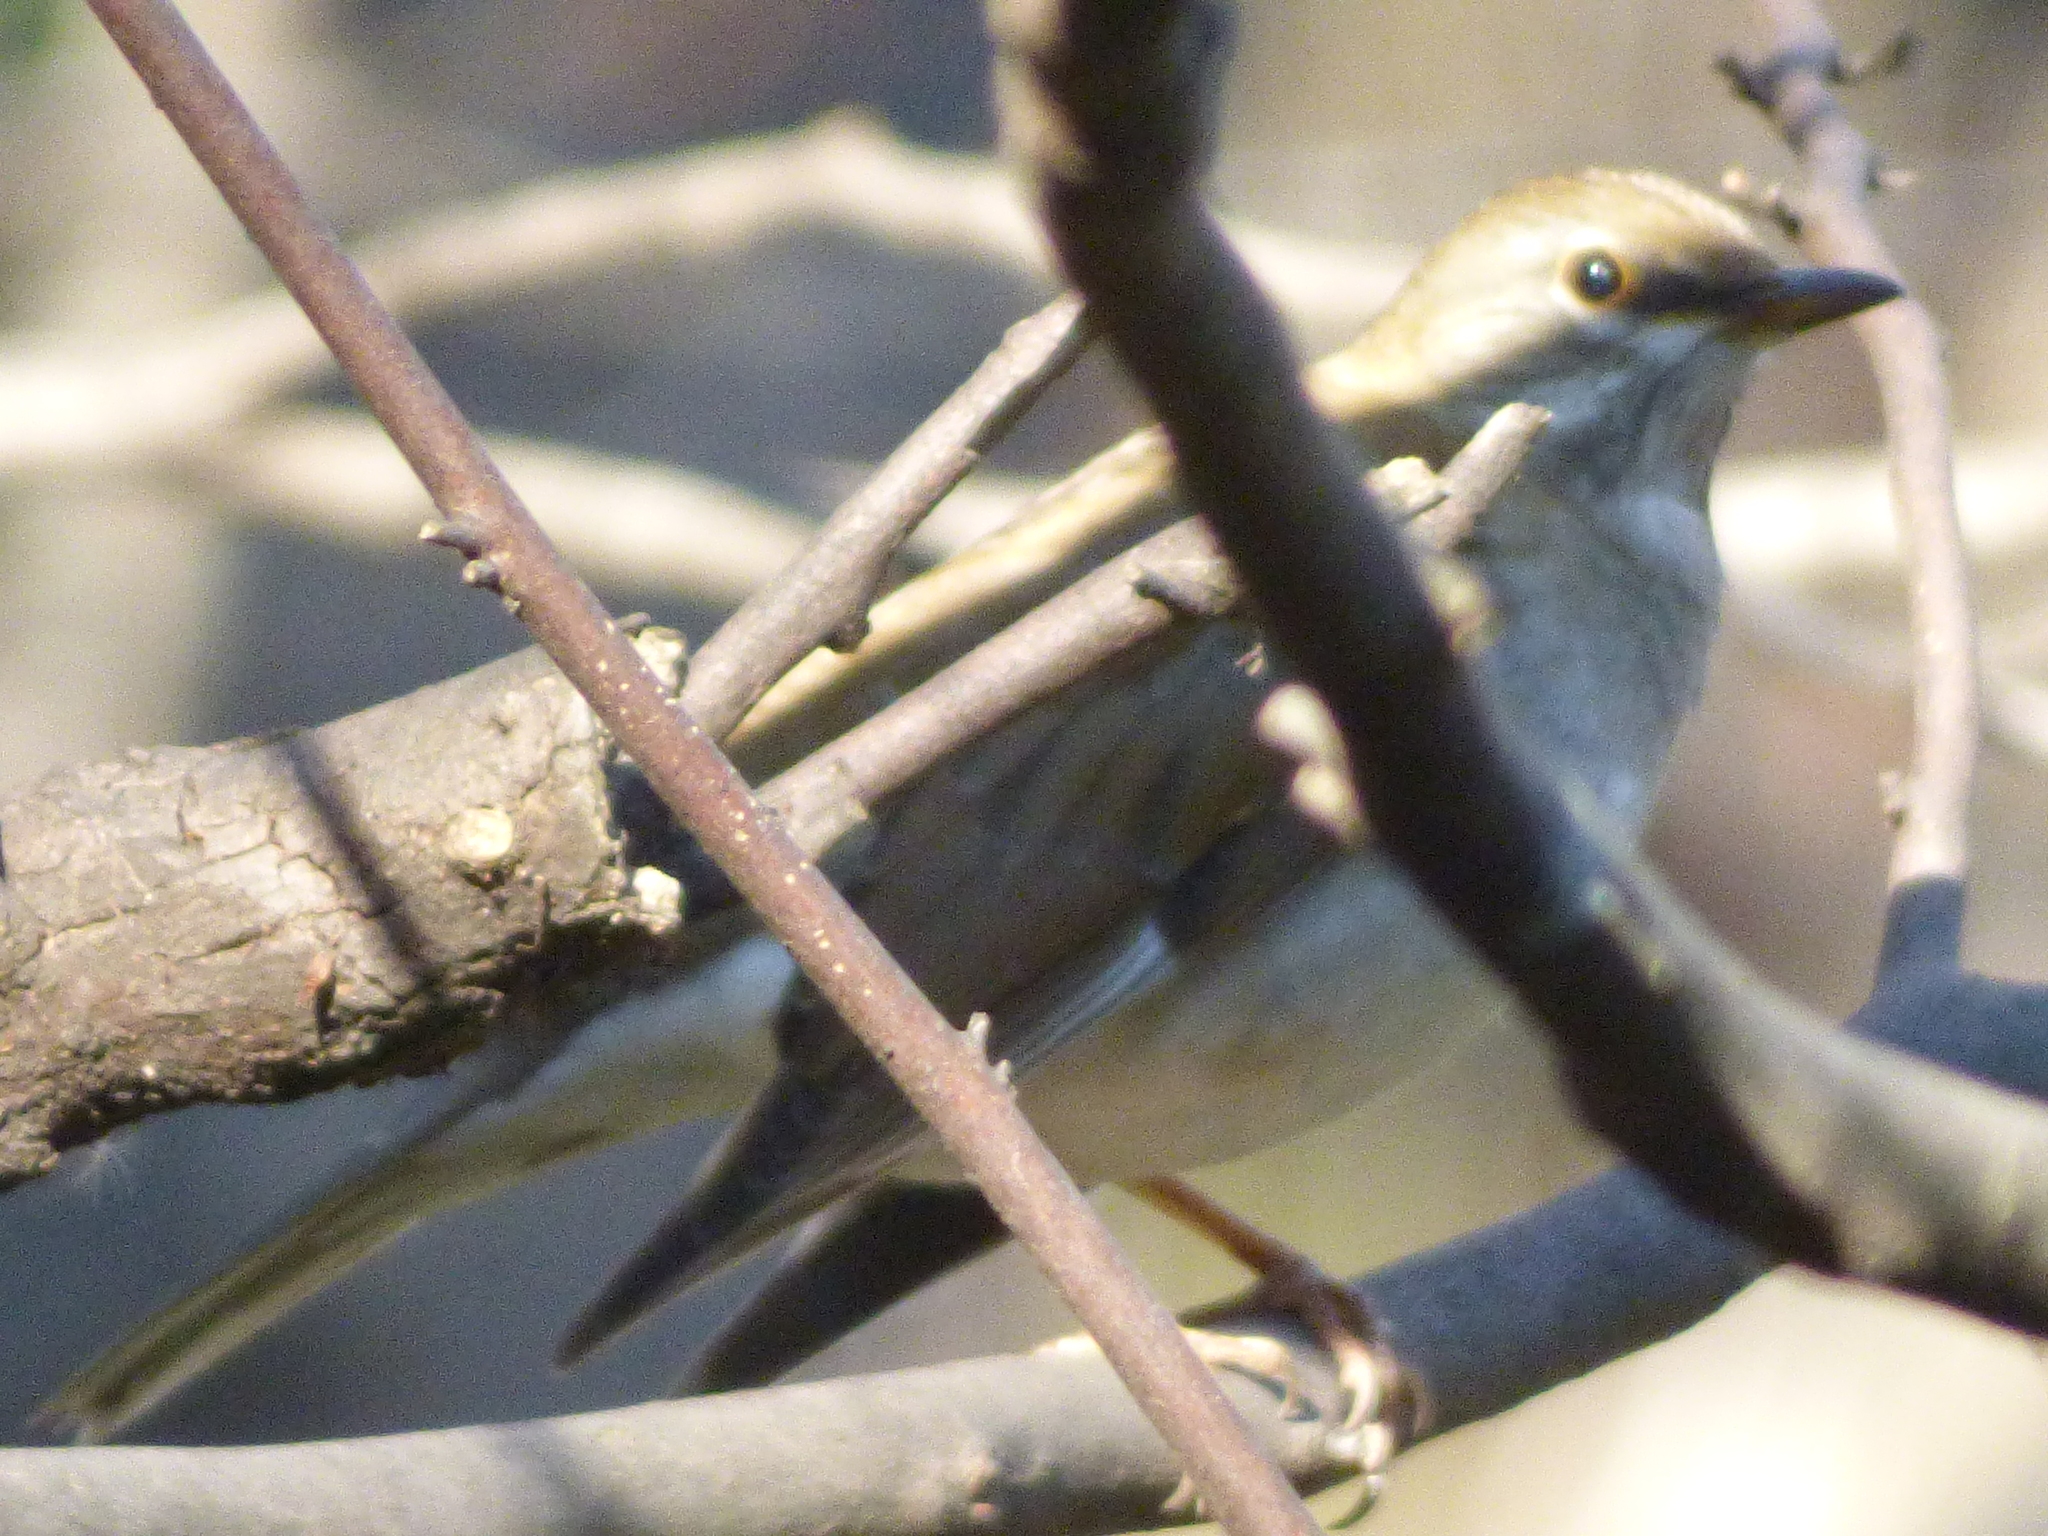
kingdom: Animalia
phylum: Chordata
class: Aves
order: Passeriformes
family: Turdidae
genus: Turdus
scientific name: Turdus pallidus
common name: Pale thrush
